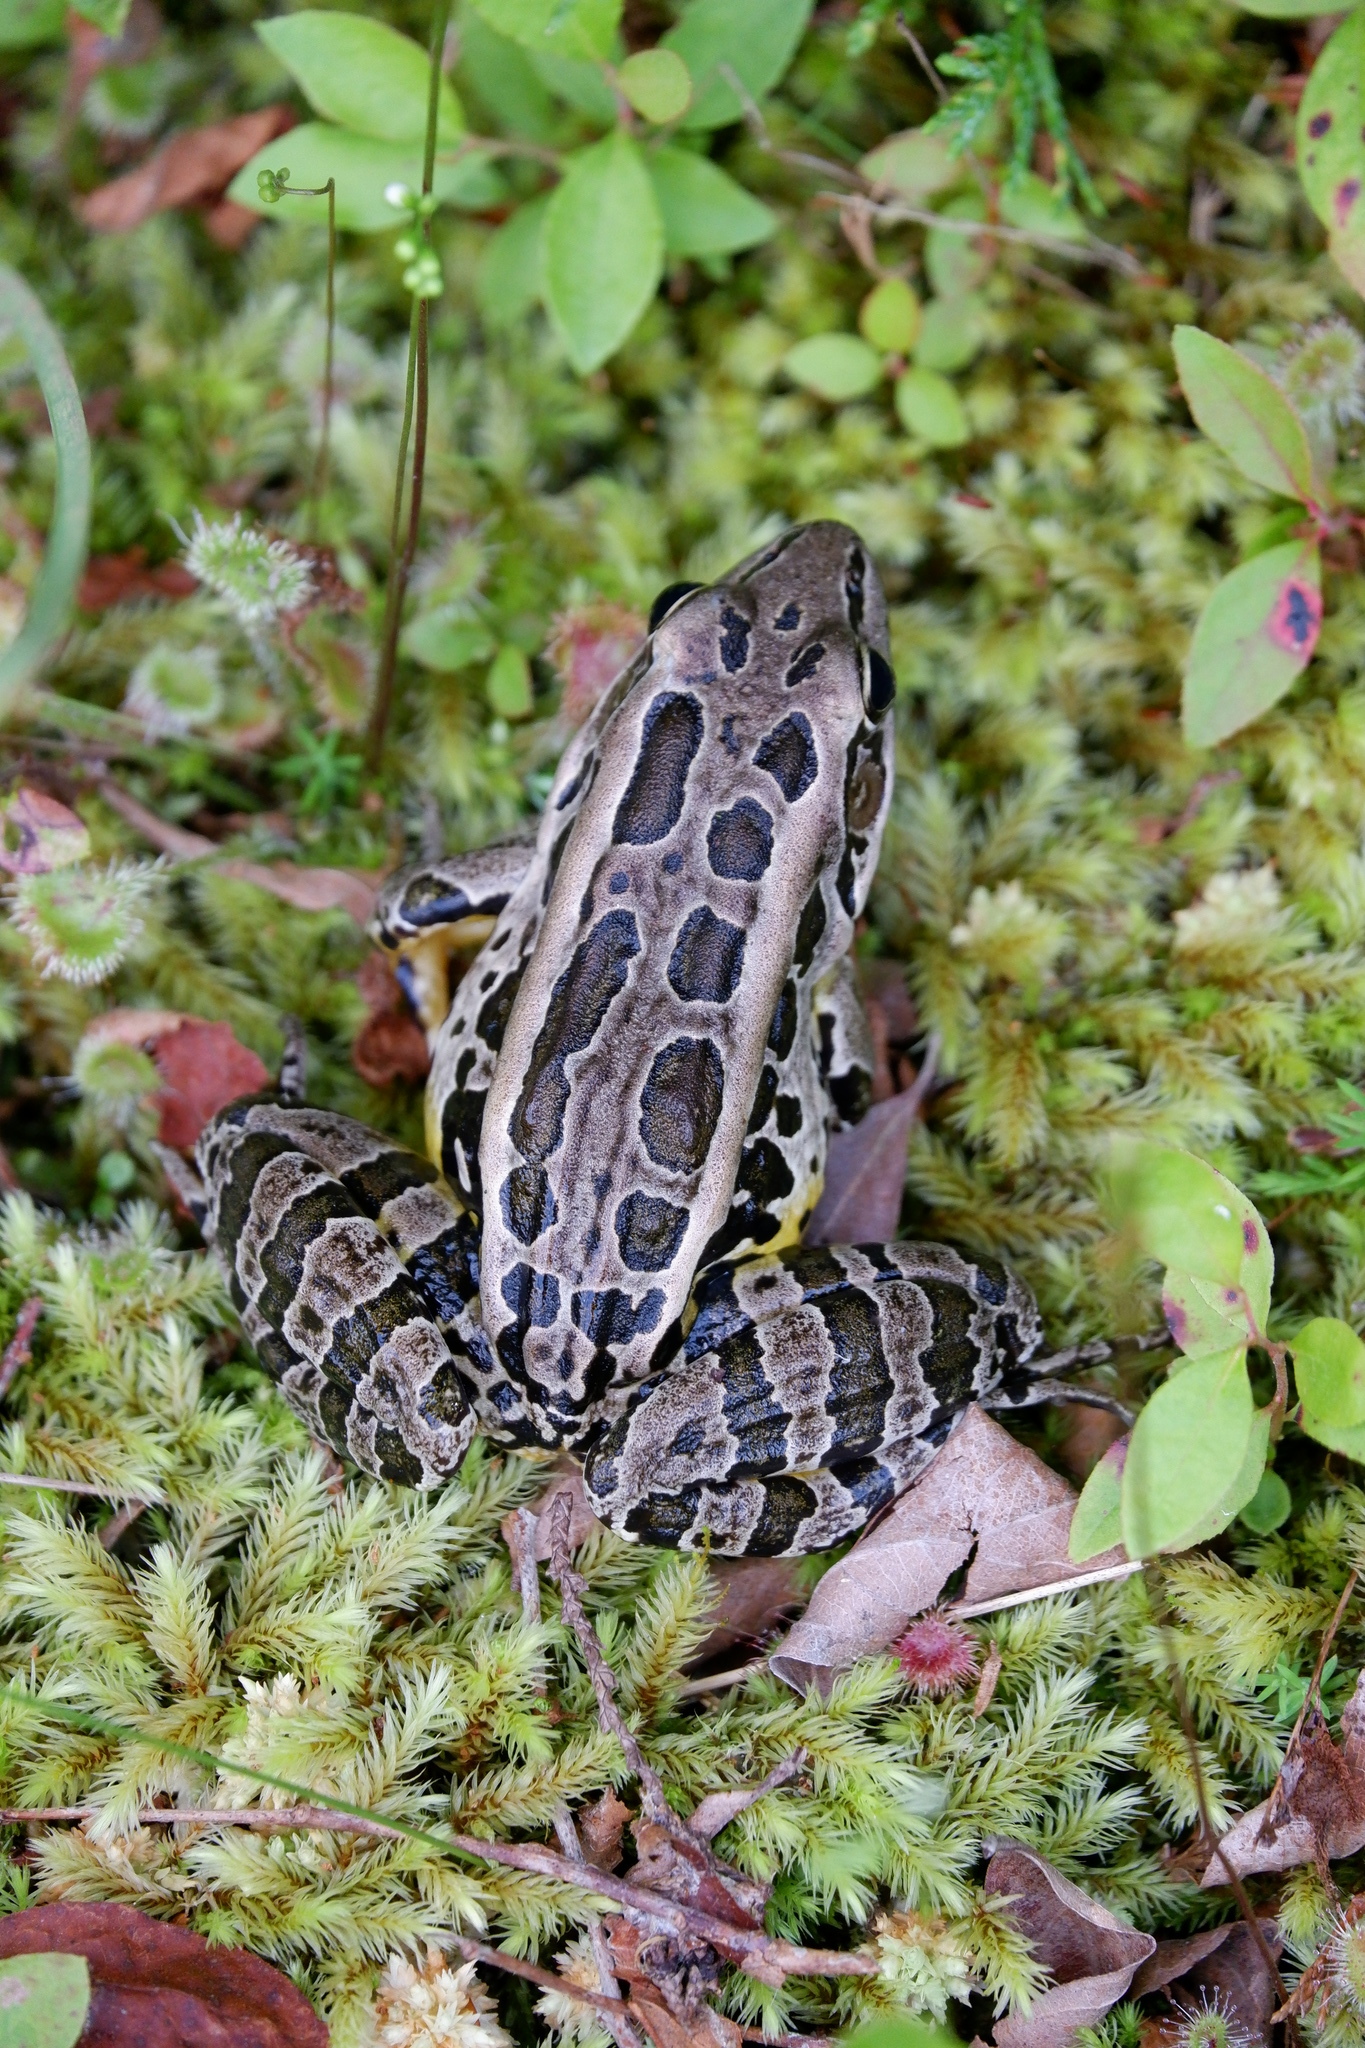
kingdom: Animalia
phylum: Chordata
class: Amphibia
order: Anura
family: Ranidae
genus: Lithobates
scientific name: Lithobates palustris
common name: Pickerel frog
